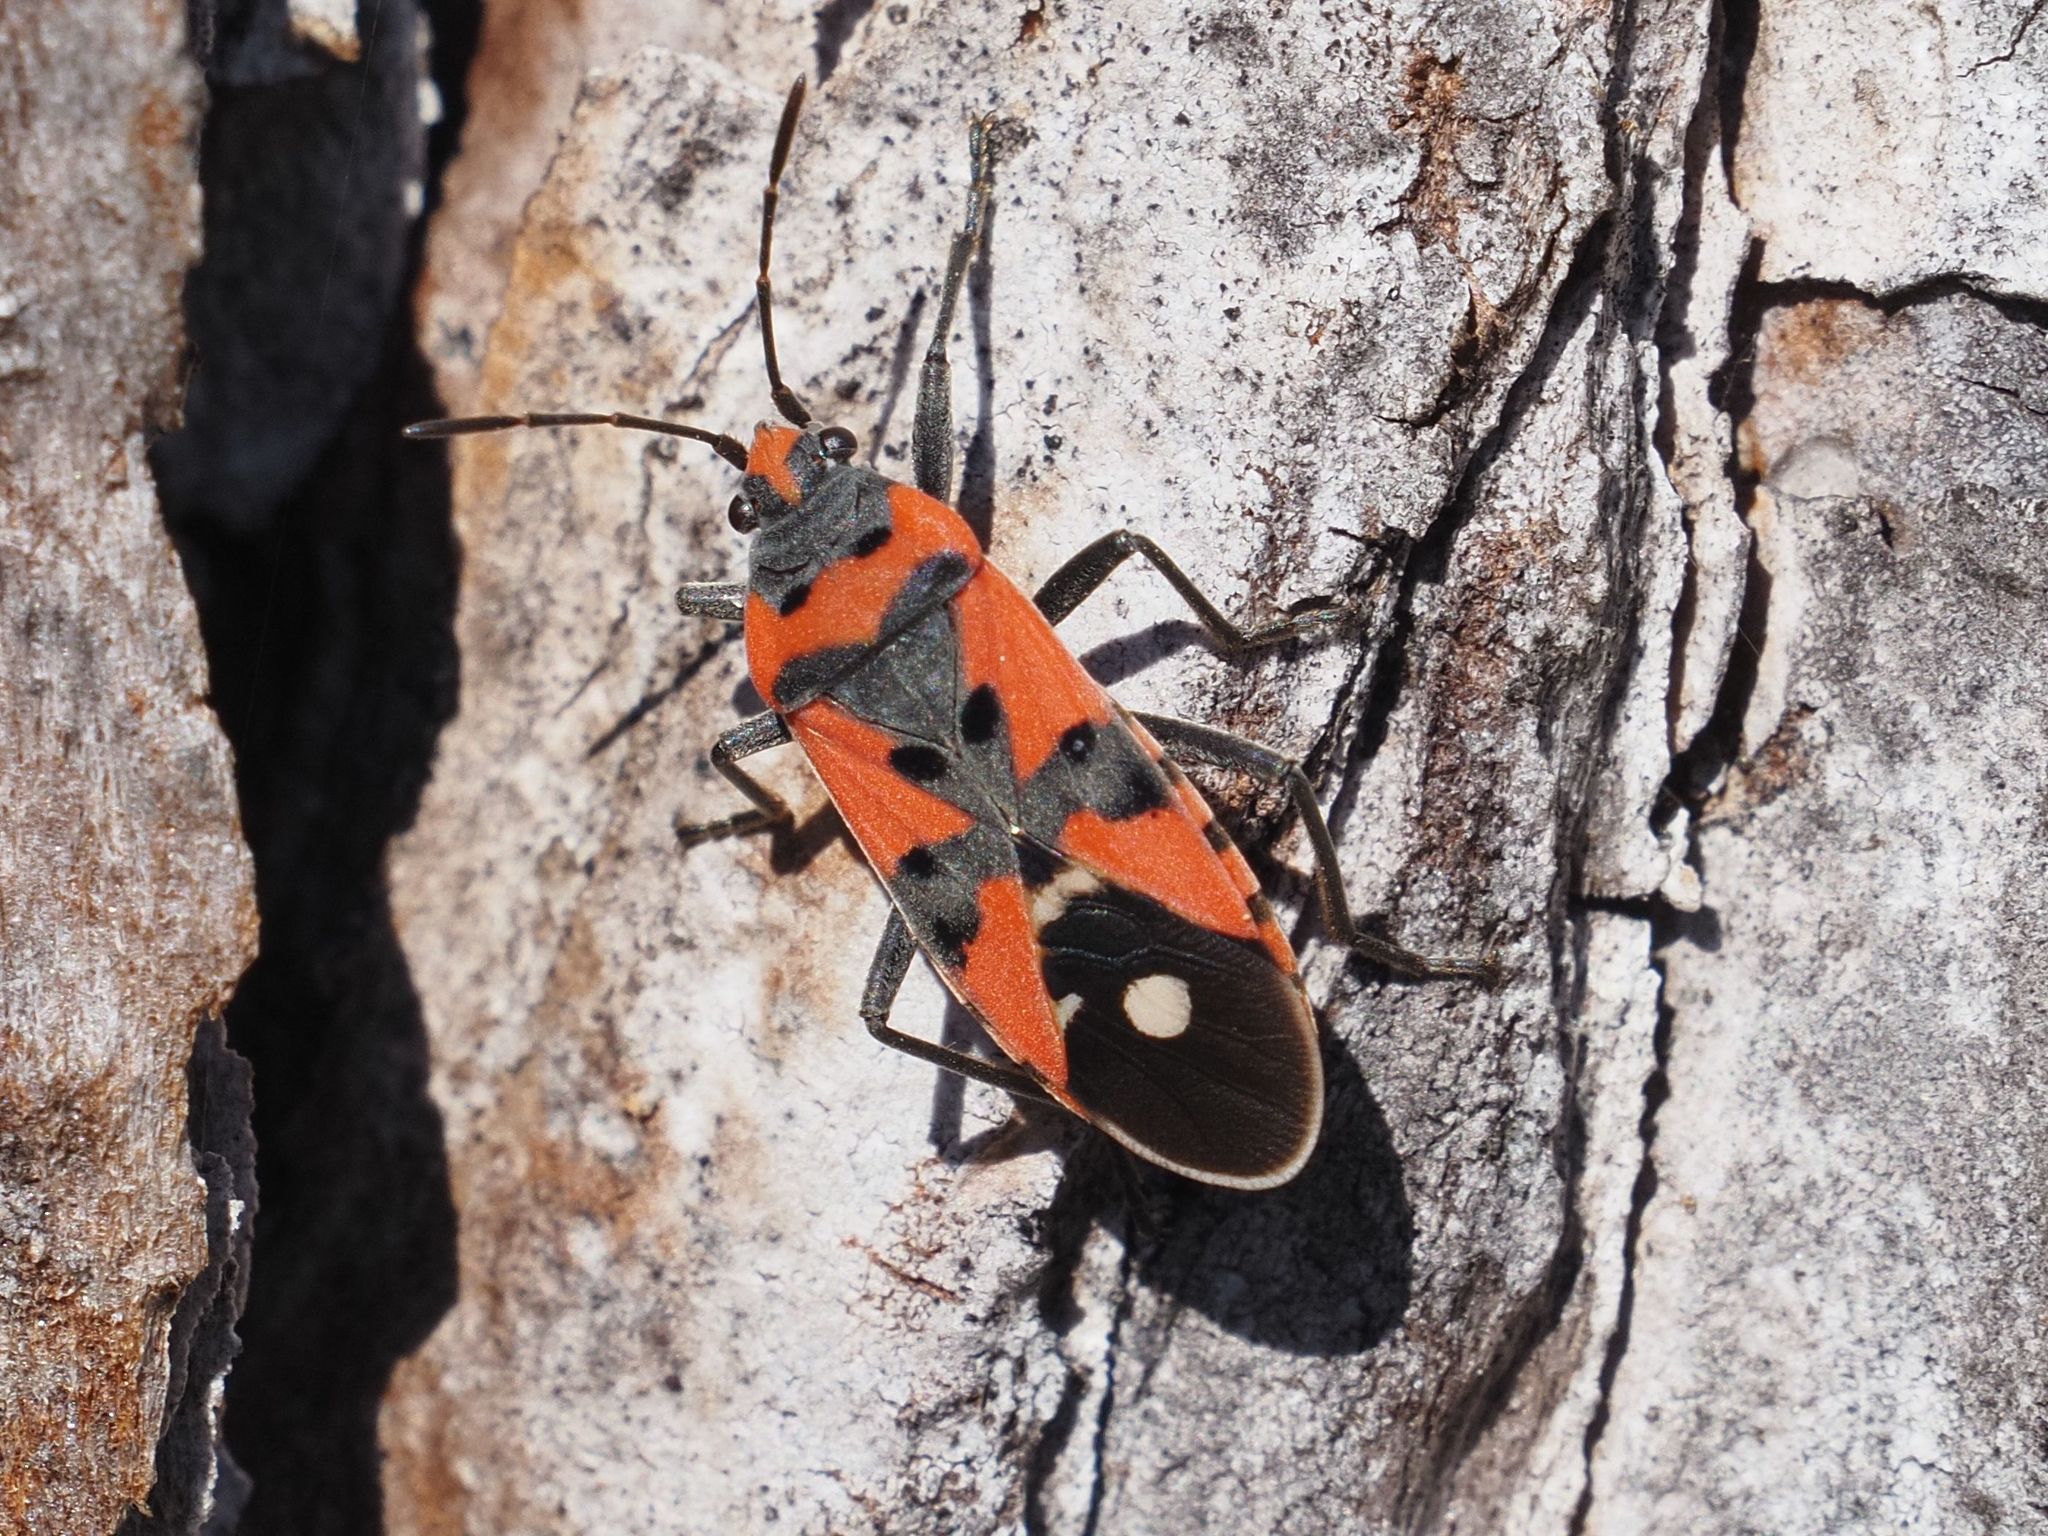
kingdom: Animalia
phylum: Arthropoda
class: Insecta
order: Hemiptera
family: Lygaeidae
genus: Lygaeus
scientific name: Lygaeus equestris
